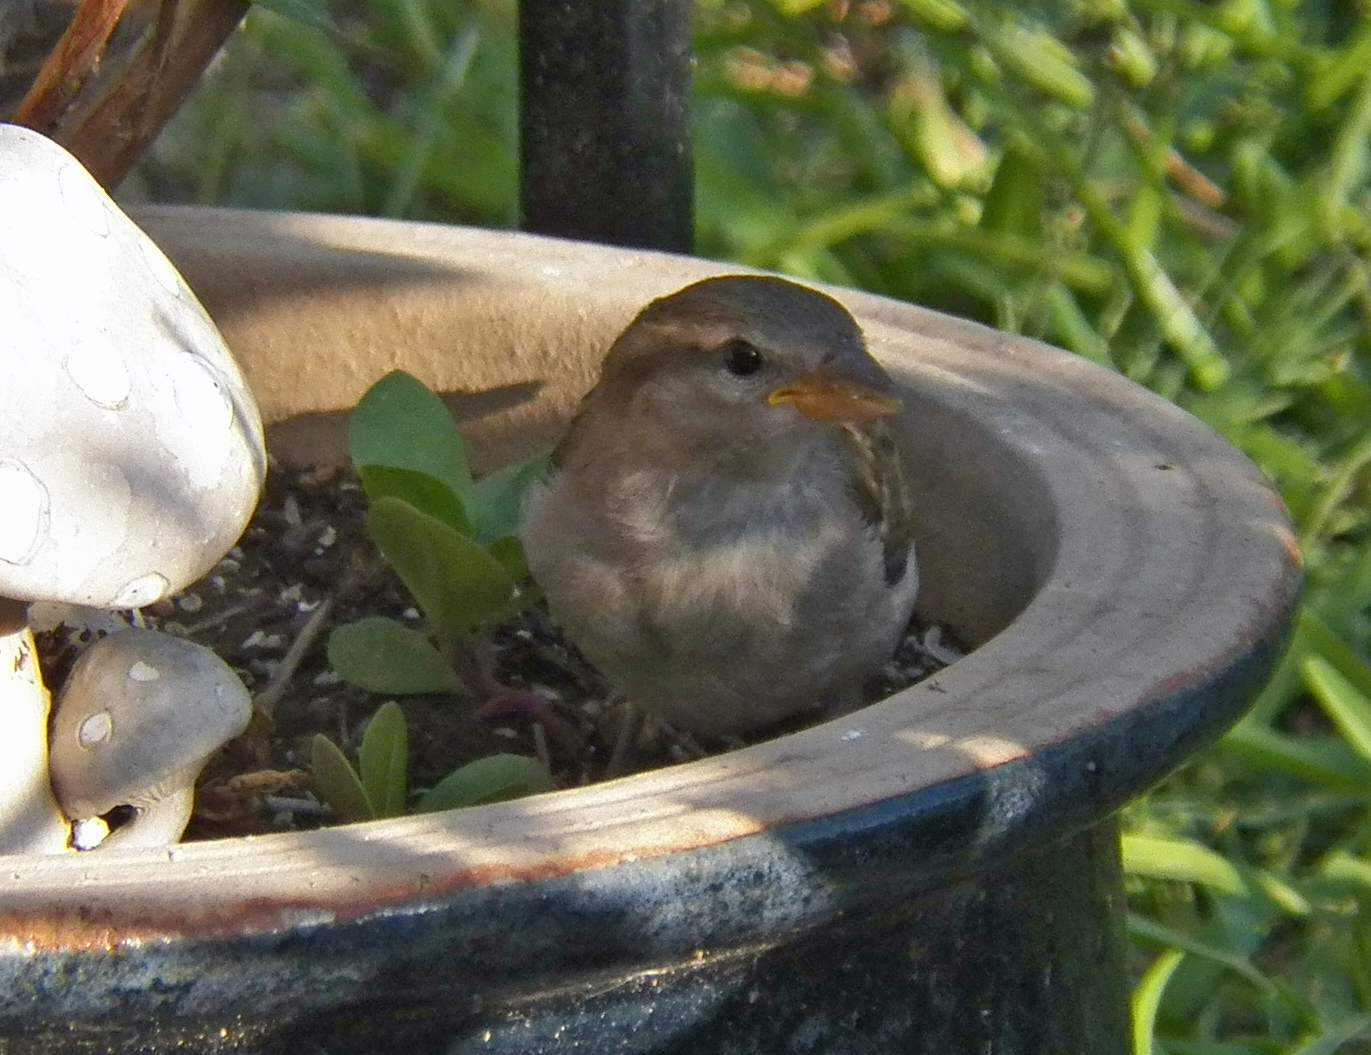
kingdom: Animalia
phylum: Chordata
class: Aves
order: Passeriformes
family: Passeridae
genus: Passer
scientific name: Passer domesticus
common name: House sparrow
